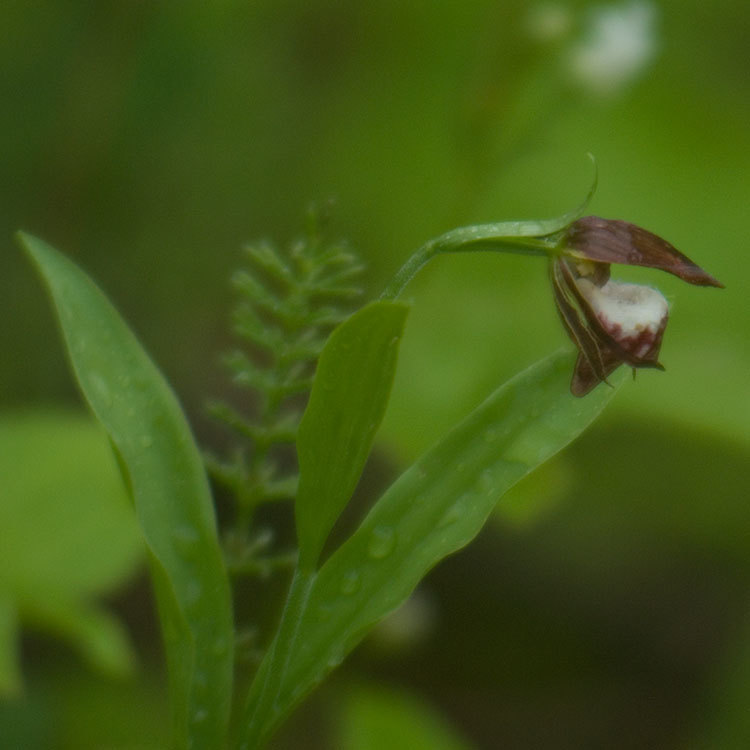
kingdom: Plantae
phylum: Tracheophyta
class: Liliopsida
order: Asparagales
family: Orchidaceae
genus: Cypripedium
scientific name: Cypripedium arietinum
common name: Ram's-head
